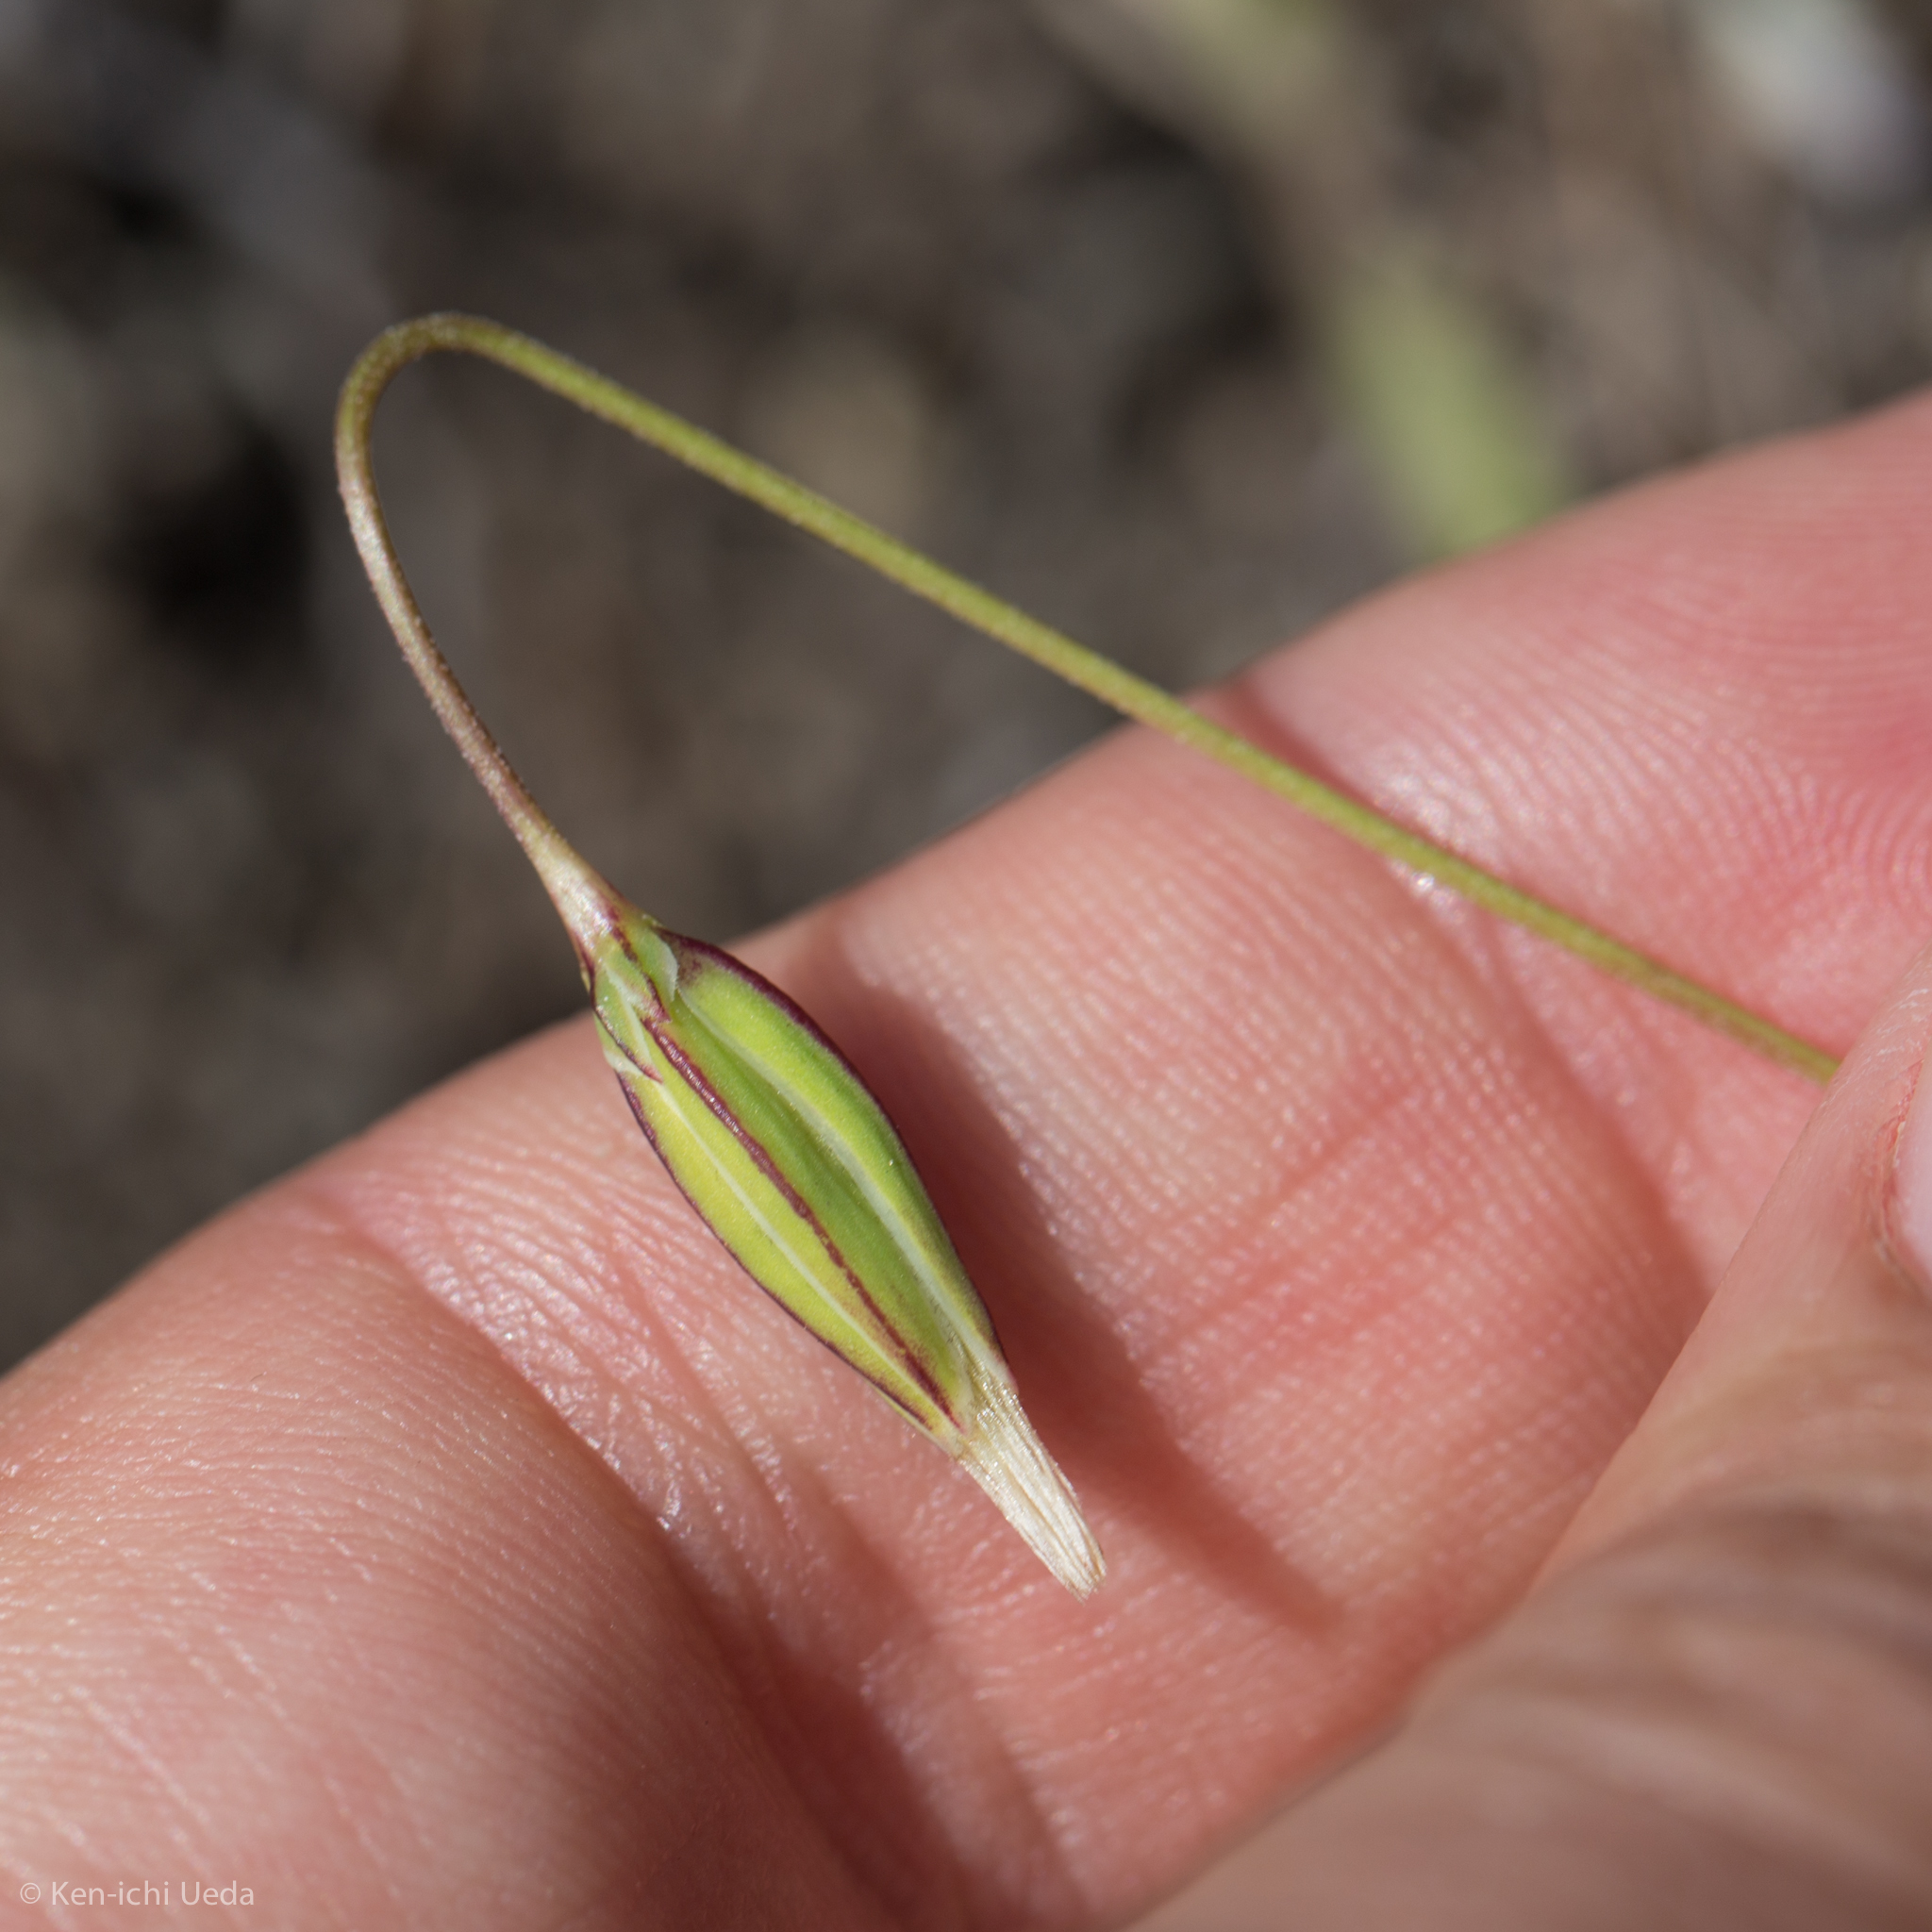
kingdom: Plantae
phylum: Tracheophyta
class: Magnoliopsida
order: Asterales
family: Asteraceae
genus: Microseris
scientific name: Microseris douglasii
